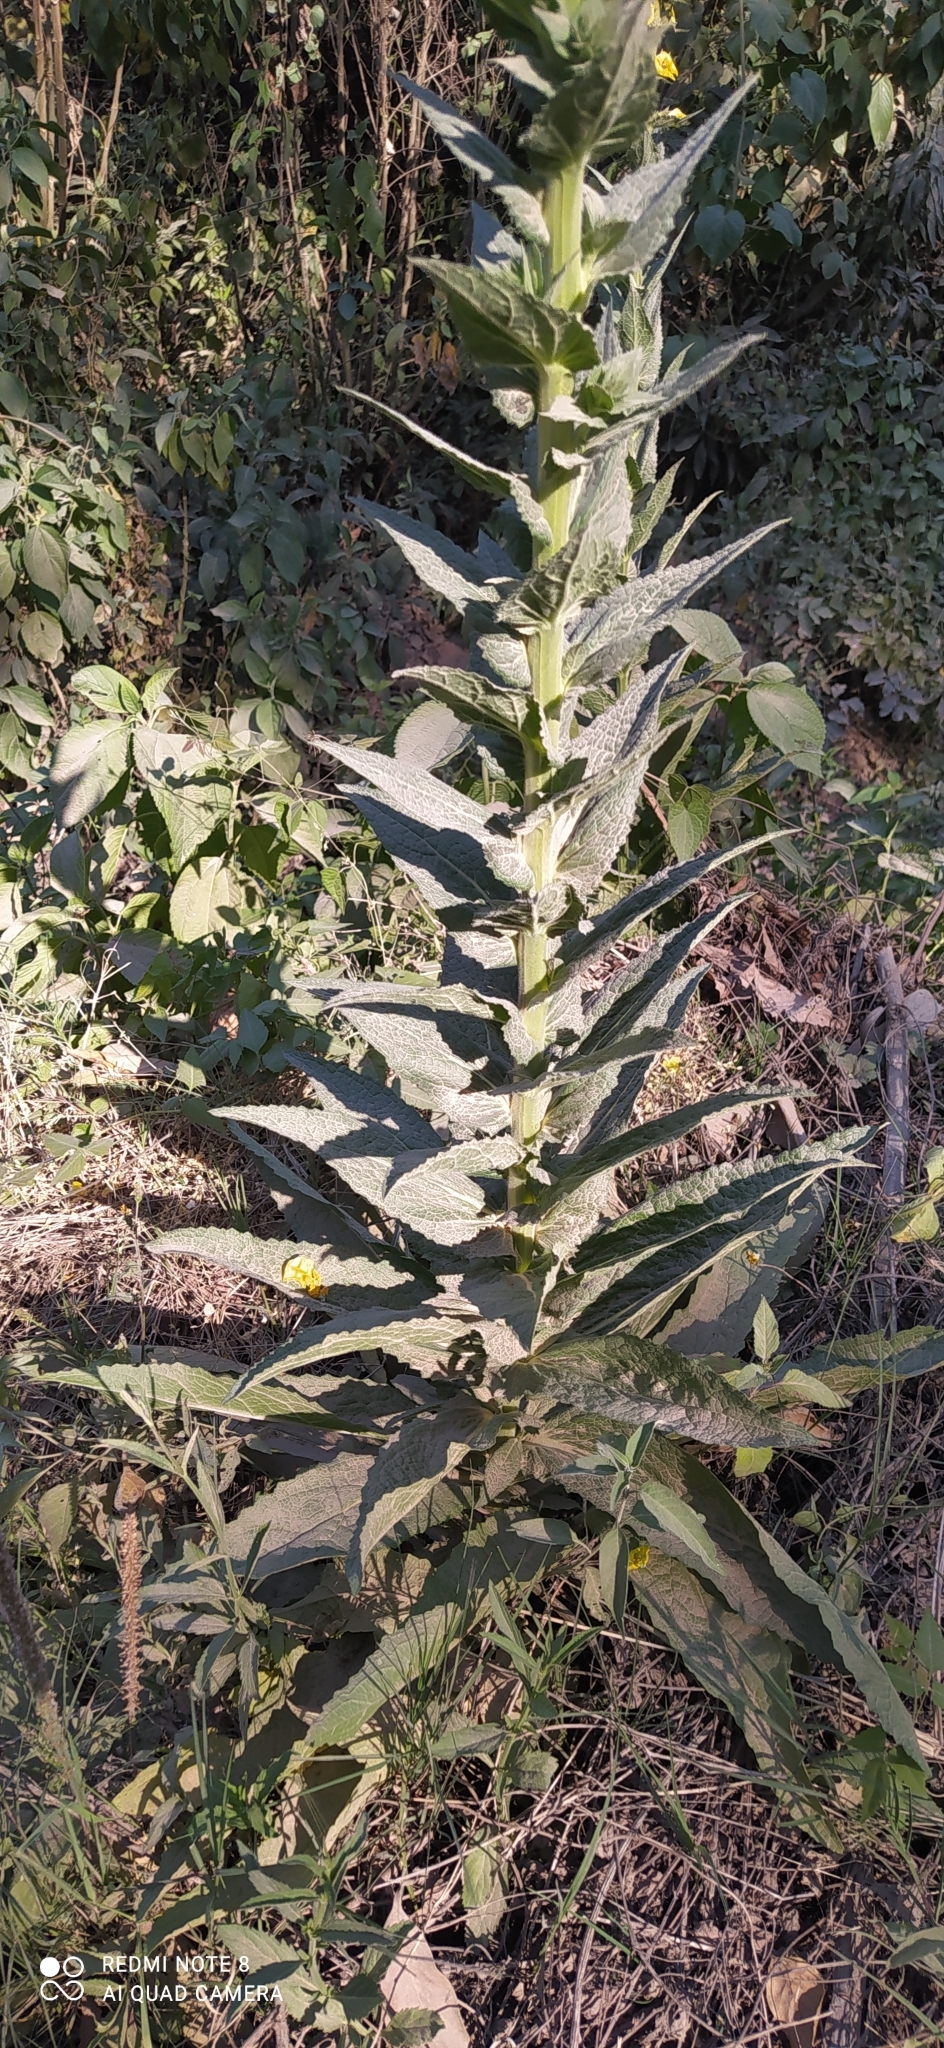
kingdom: Plantae
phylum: Tracheophyta
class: Magnoliopsida
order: Lamiales
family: Scrophulariaceae
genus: Verbascum
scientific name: Verbascum virgatum
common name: Twiggy mullein
